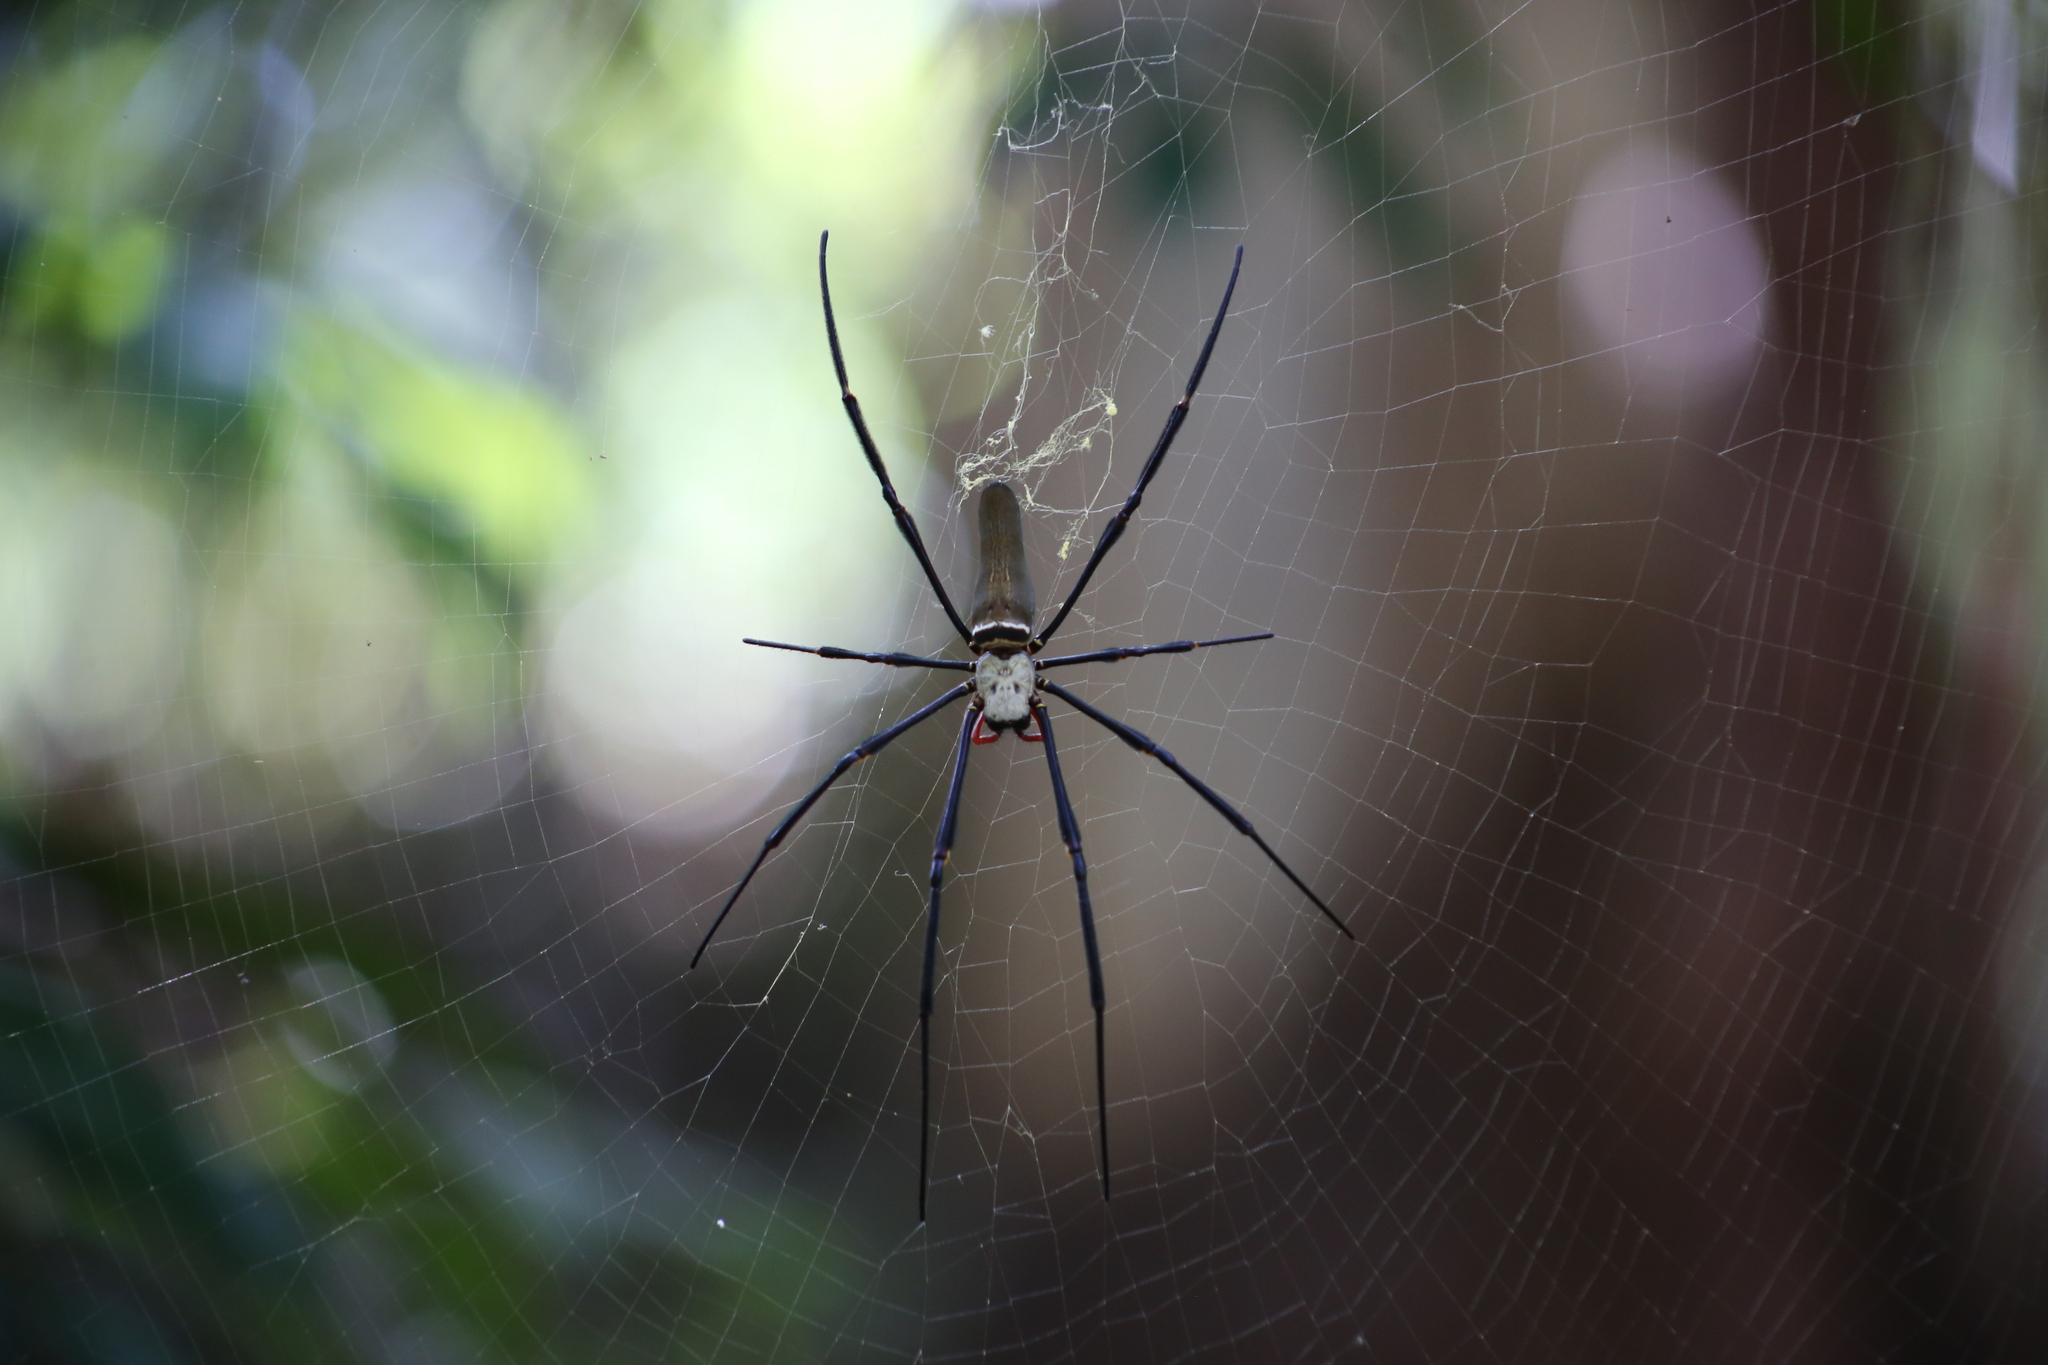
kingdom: Animalia
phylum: Arthropoda
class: Arachnida
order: Araneae
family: Araneidae
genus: Nephila
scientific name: Nephila pilipes
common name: Giant golden orb weaver
